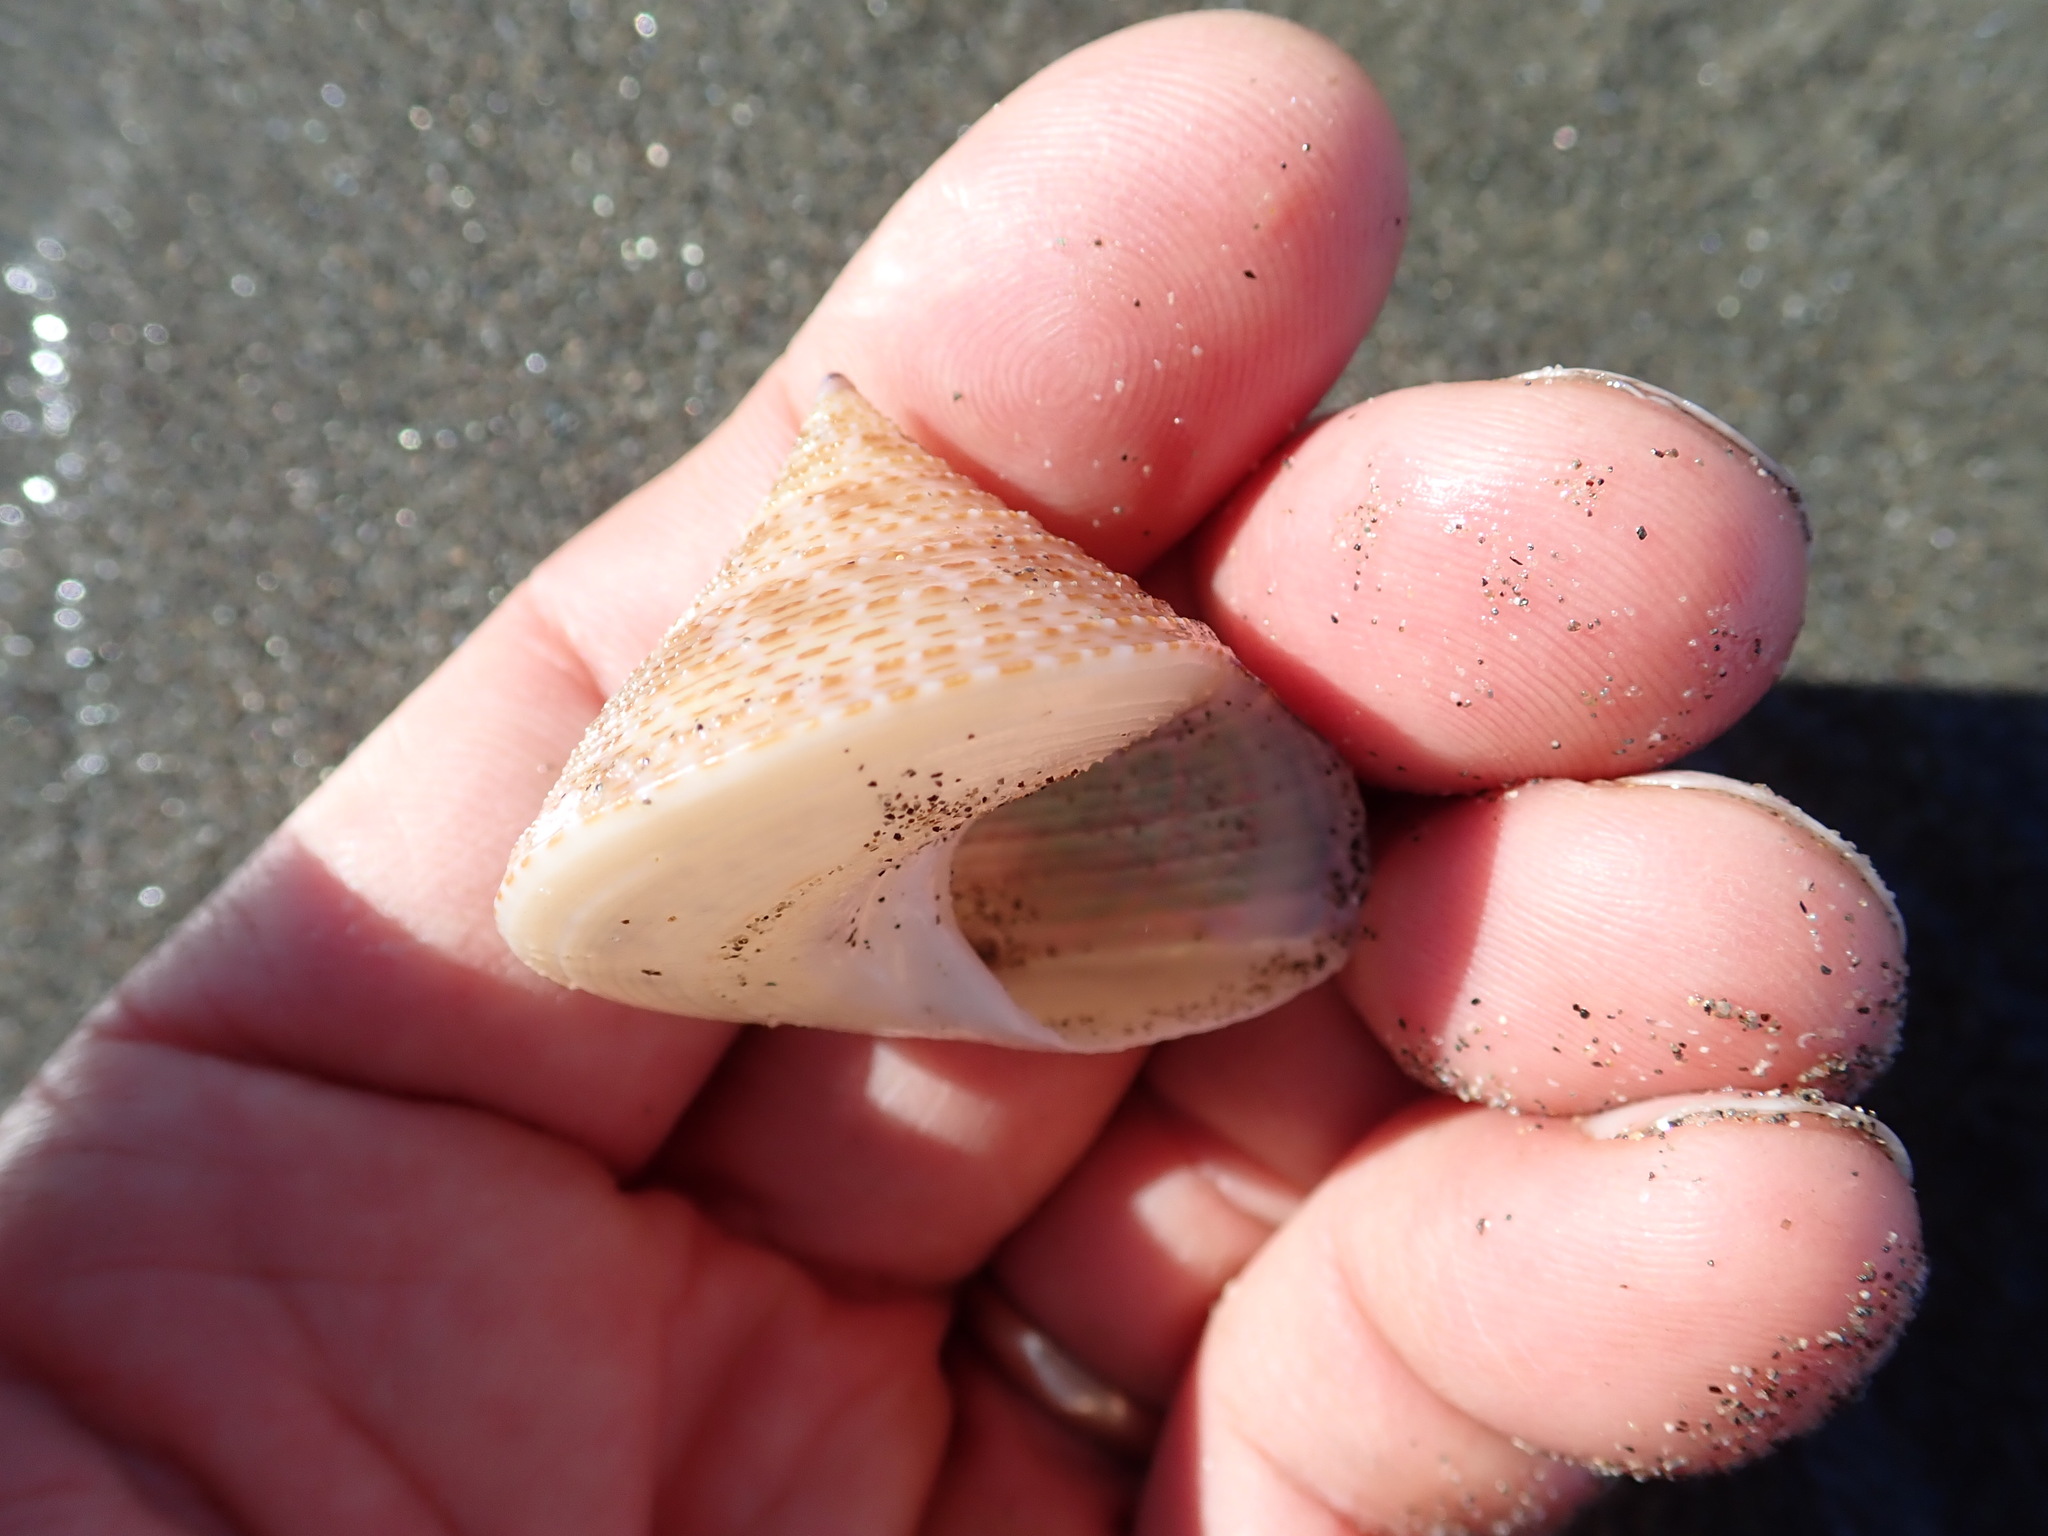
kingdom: Animalia
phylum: Mollusca
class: Gastropoda
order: Trochida
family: Calliostomatidae
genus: Maurea
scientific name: Maurea selecta
